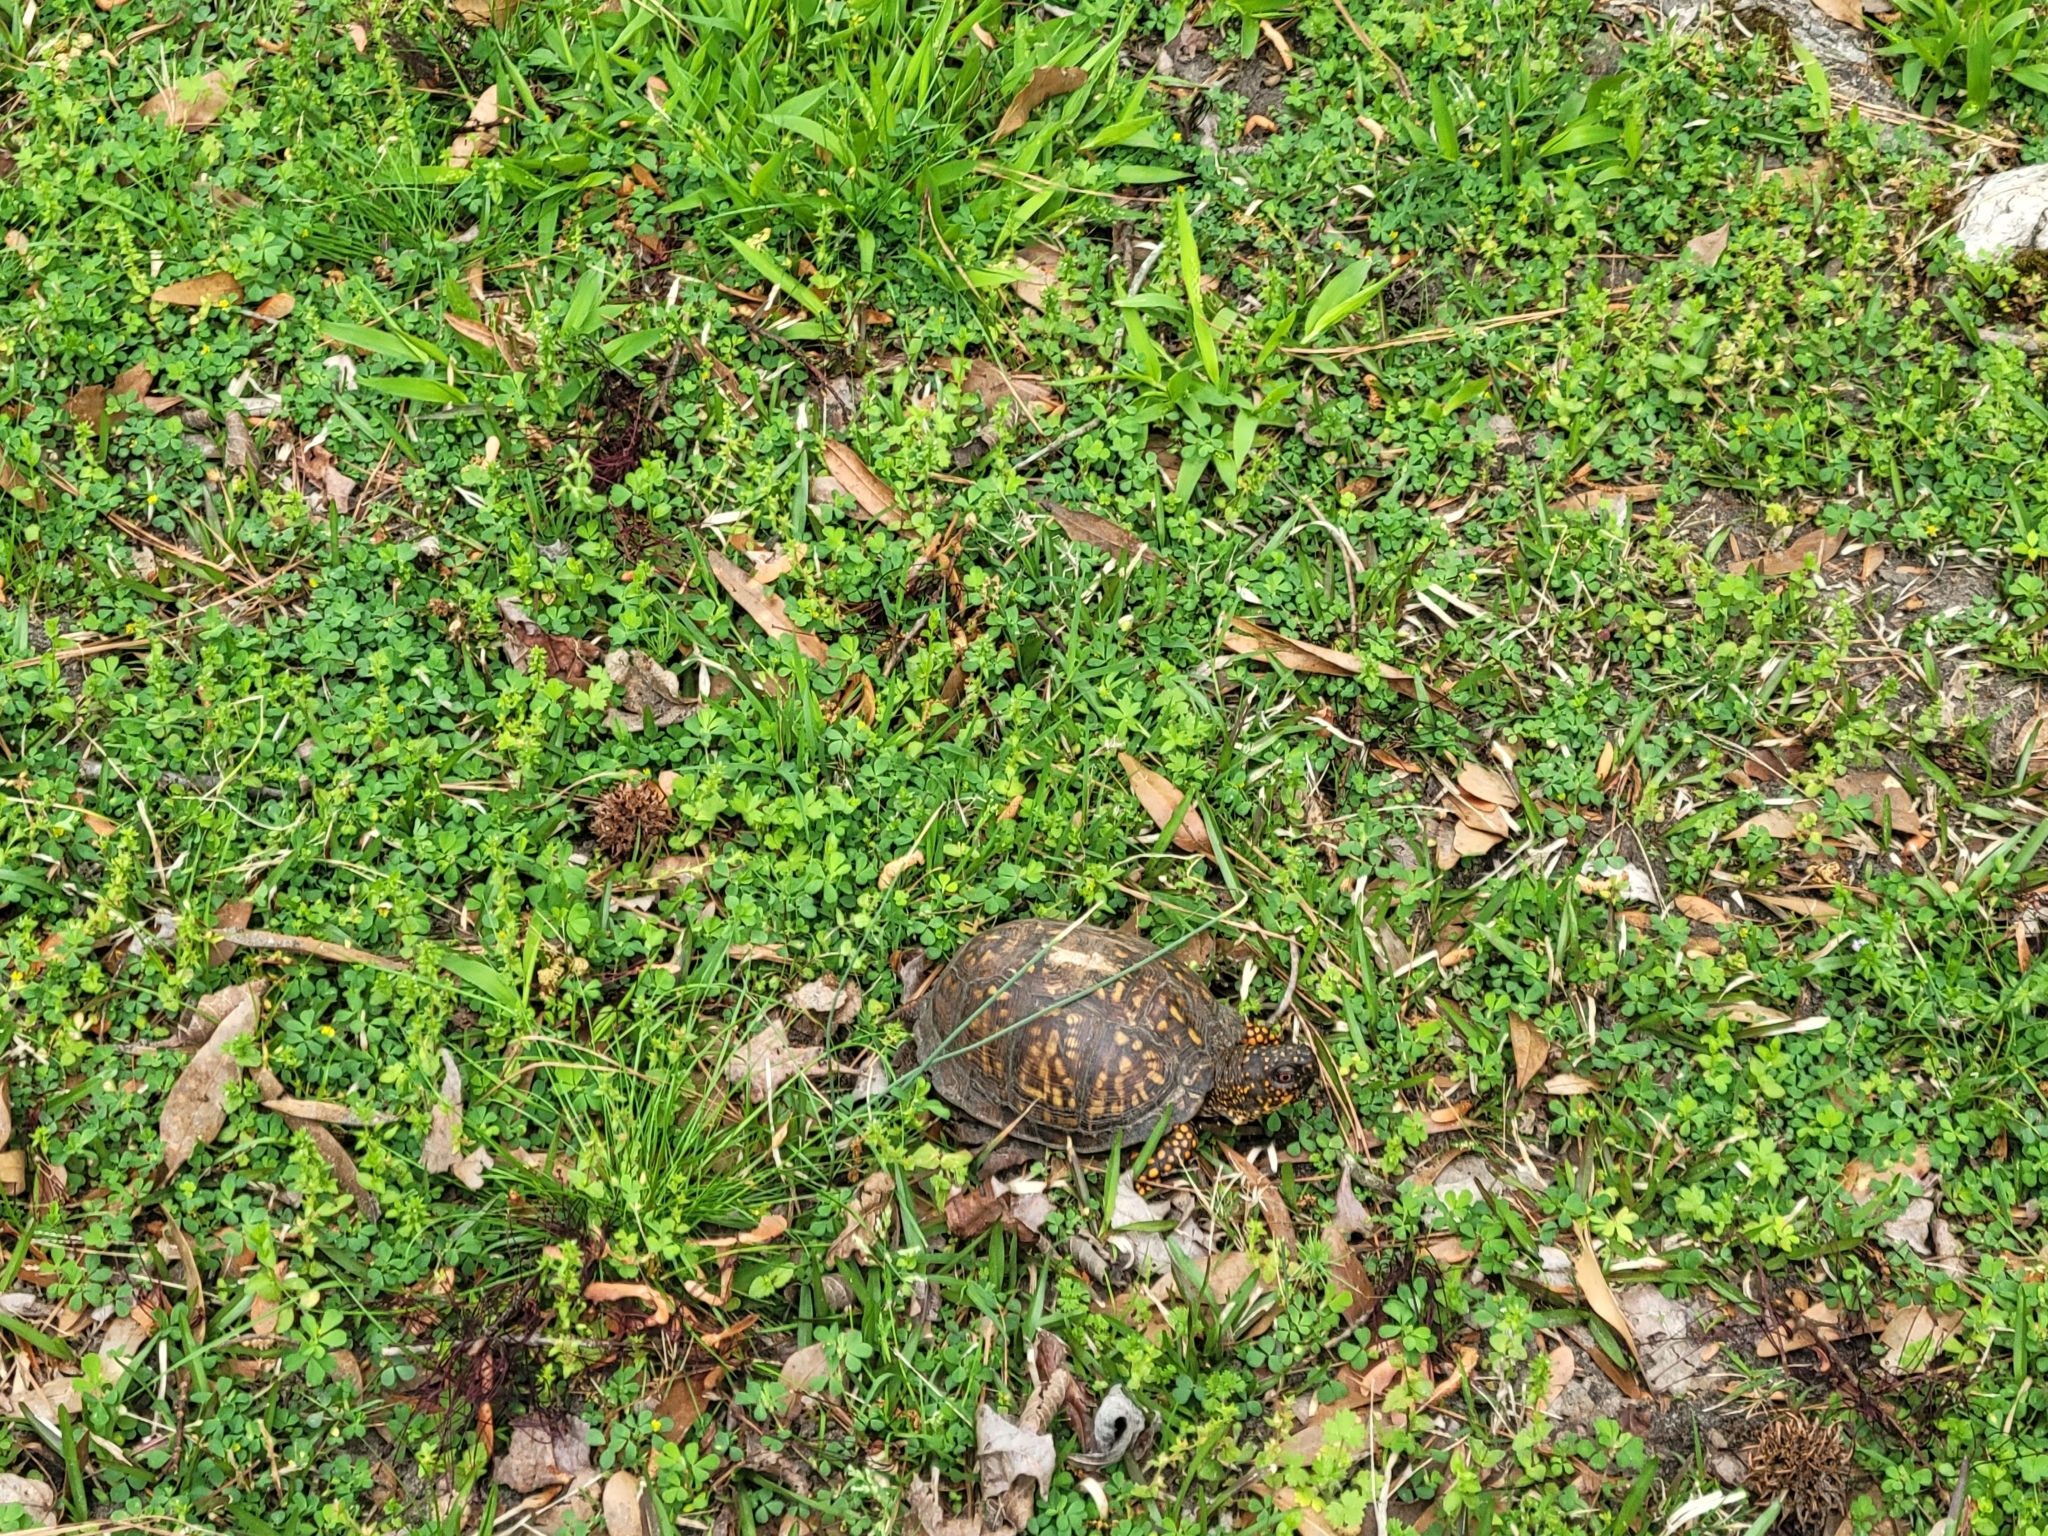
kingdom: Animalia
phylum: Chordata
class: Testudines
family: Emydidae
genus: Terrapene
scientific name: Terrapene carolina
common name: Common box turtle
